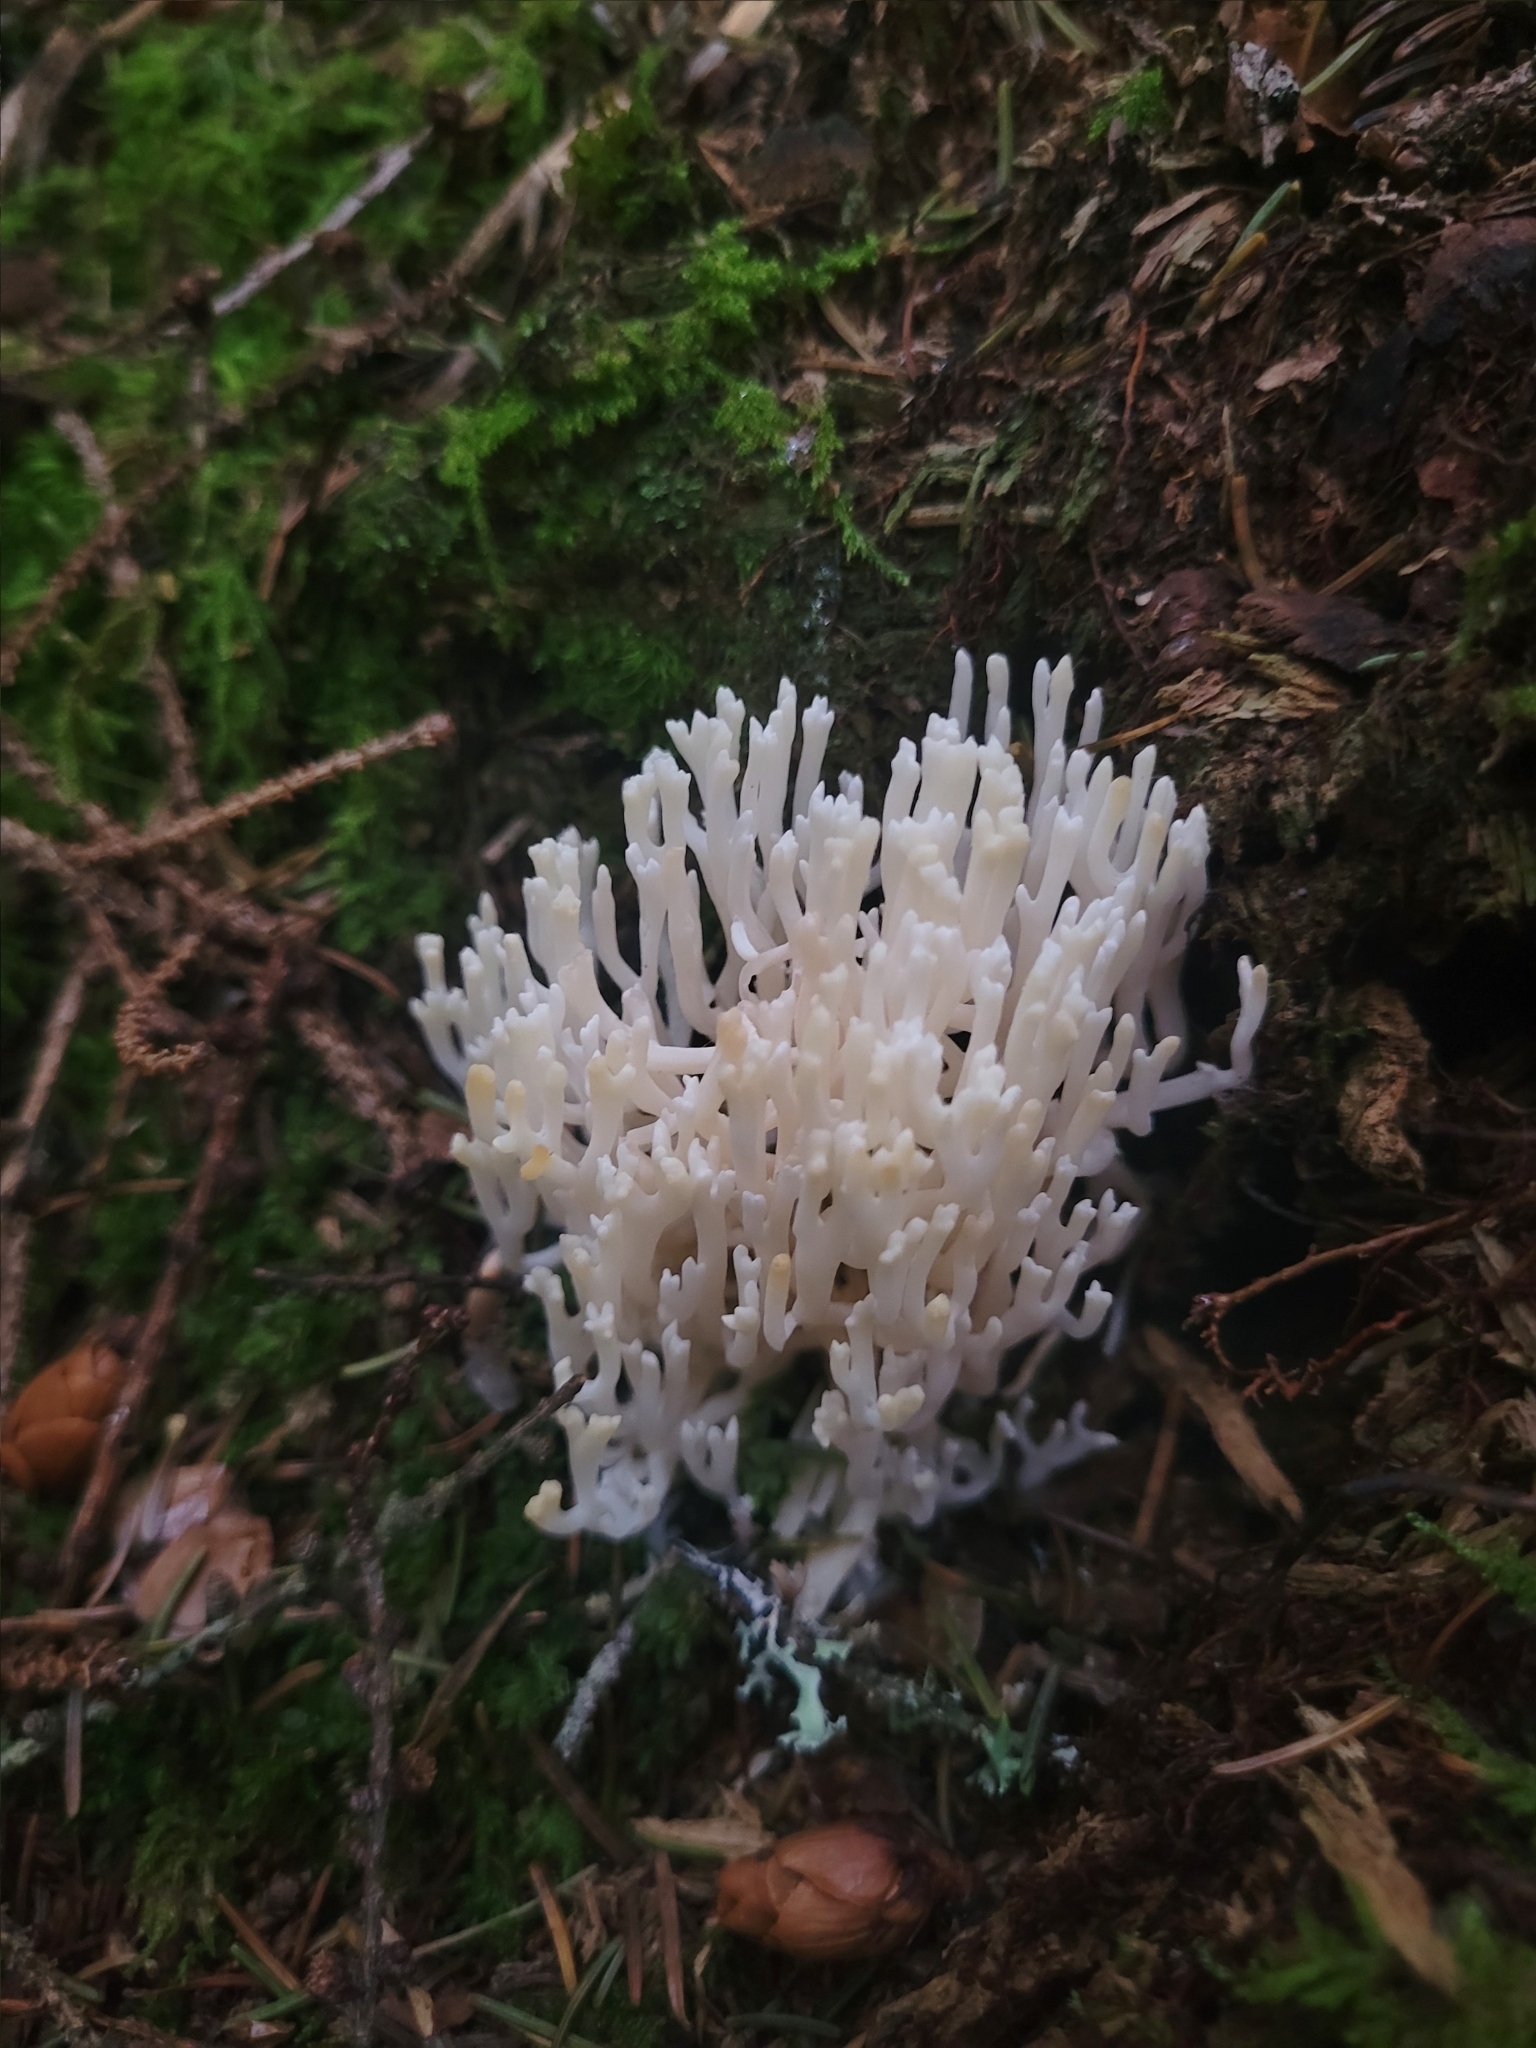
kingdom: Fungi
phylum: Basidiomycota
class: Agaricomycetes
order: Agaricales
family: Clavariaceae
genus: Ramariopsis
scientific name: Ramariopsis kunzei
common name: Ivory coral
